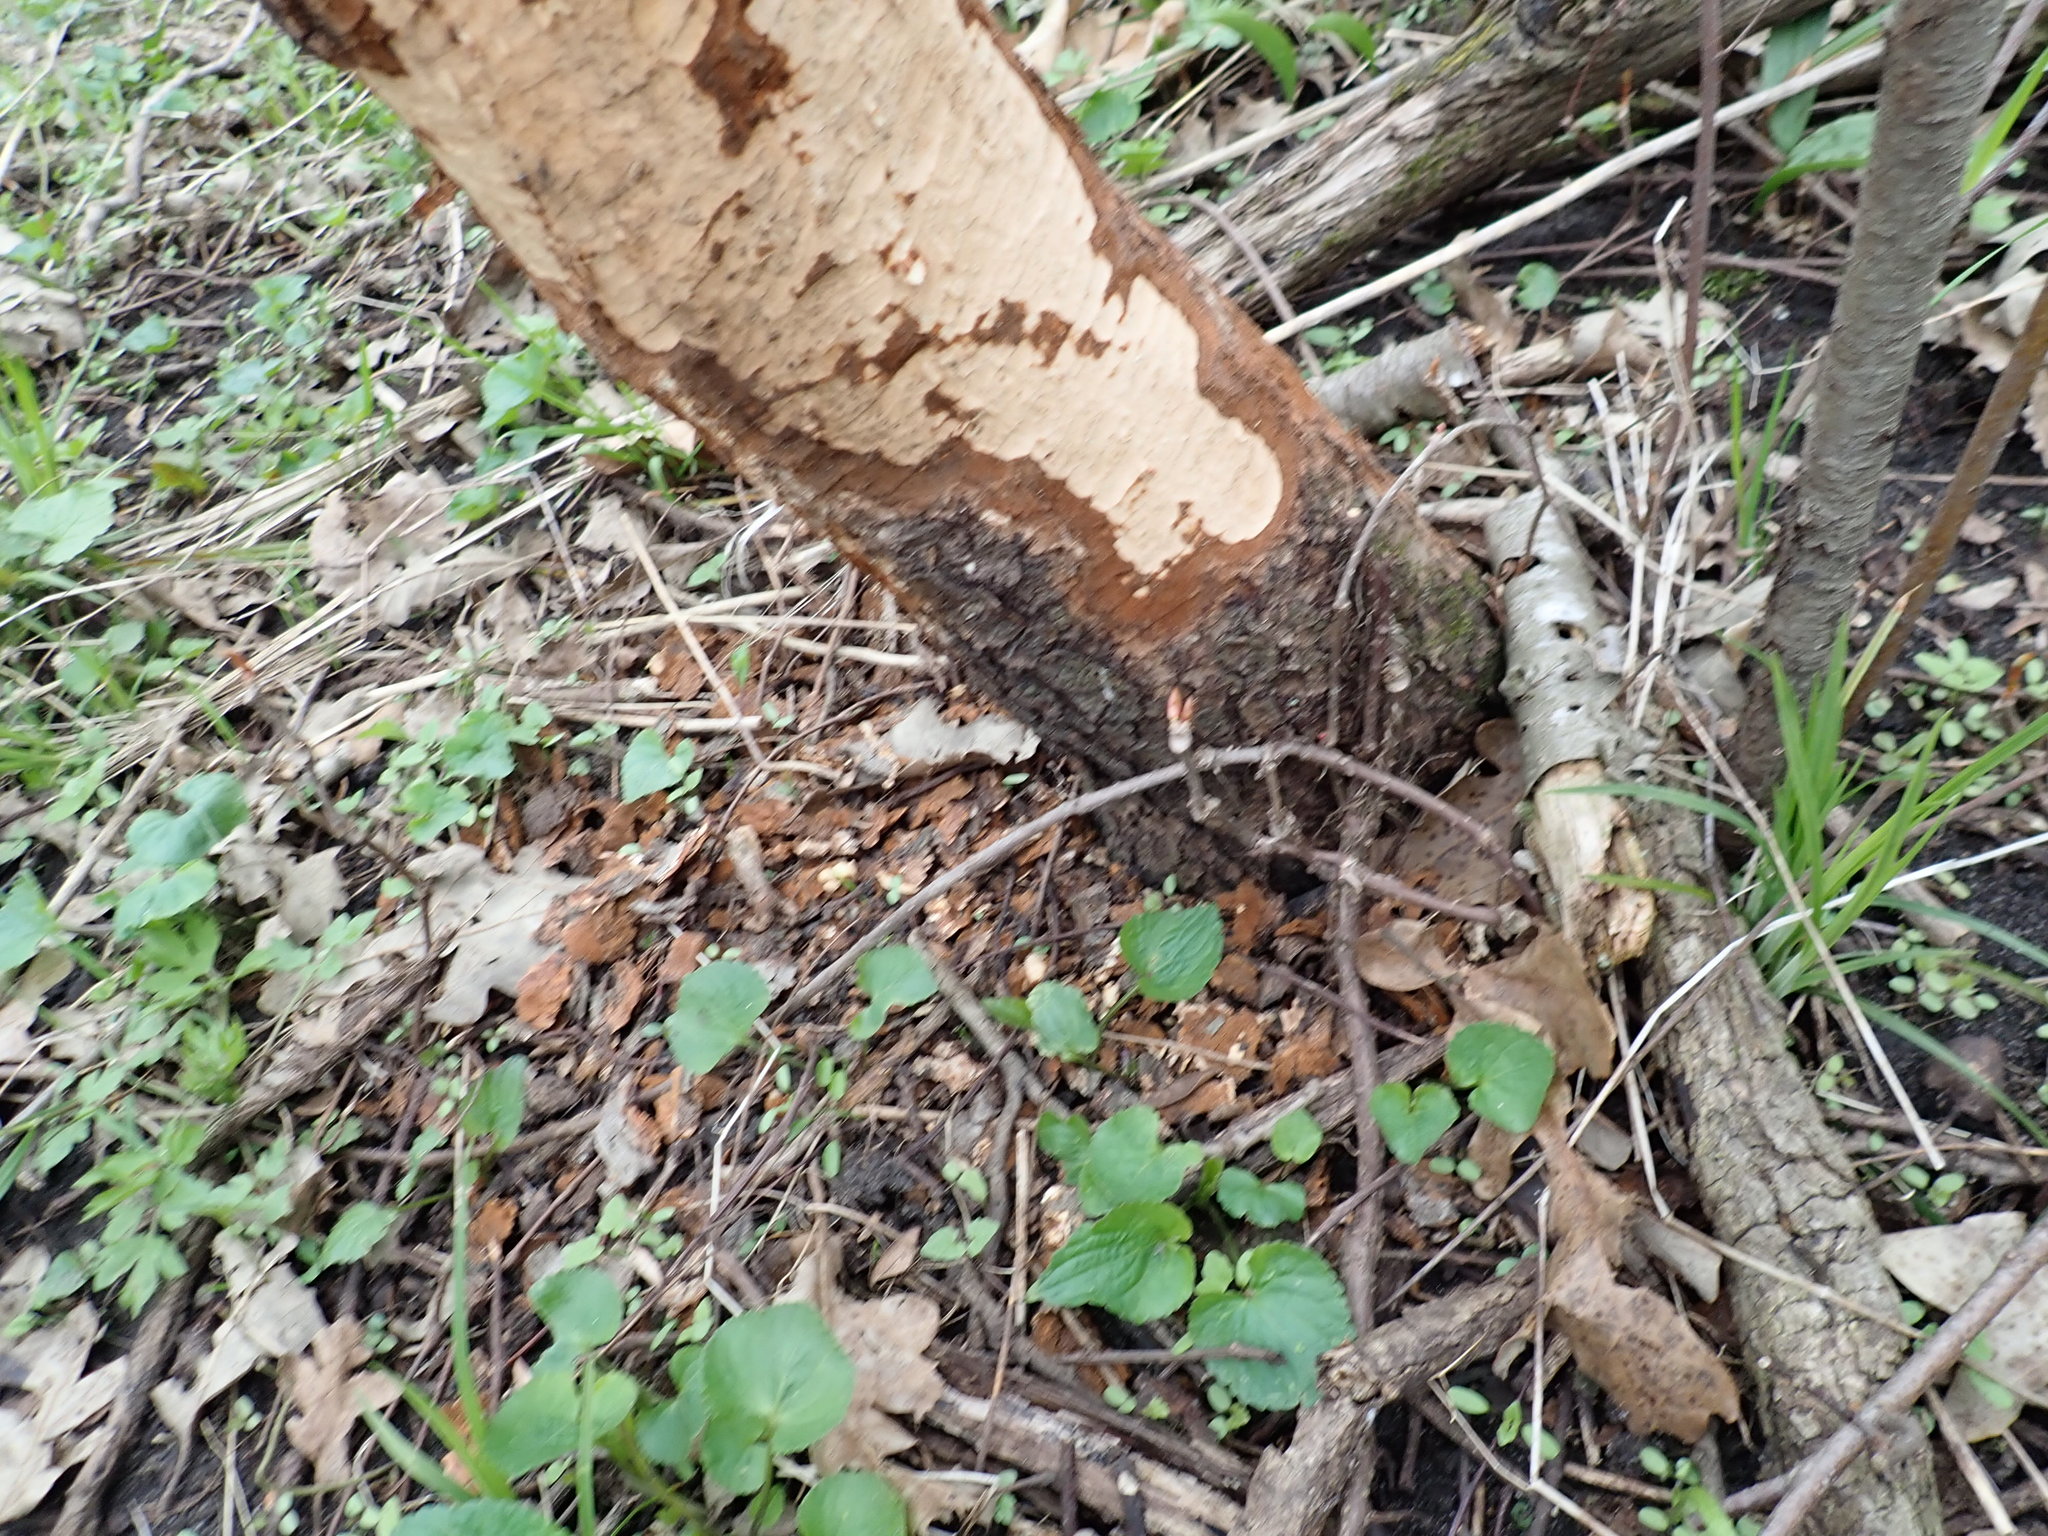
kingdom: Animalia
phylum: Chordata
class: Mammalia
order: Rodentia
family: Castoridae
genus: Castor
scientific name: Castor canadensis
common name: American beaver
